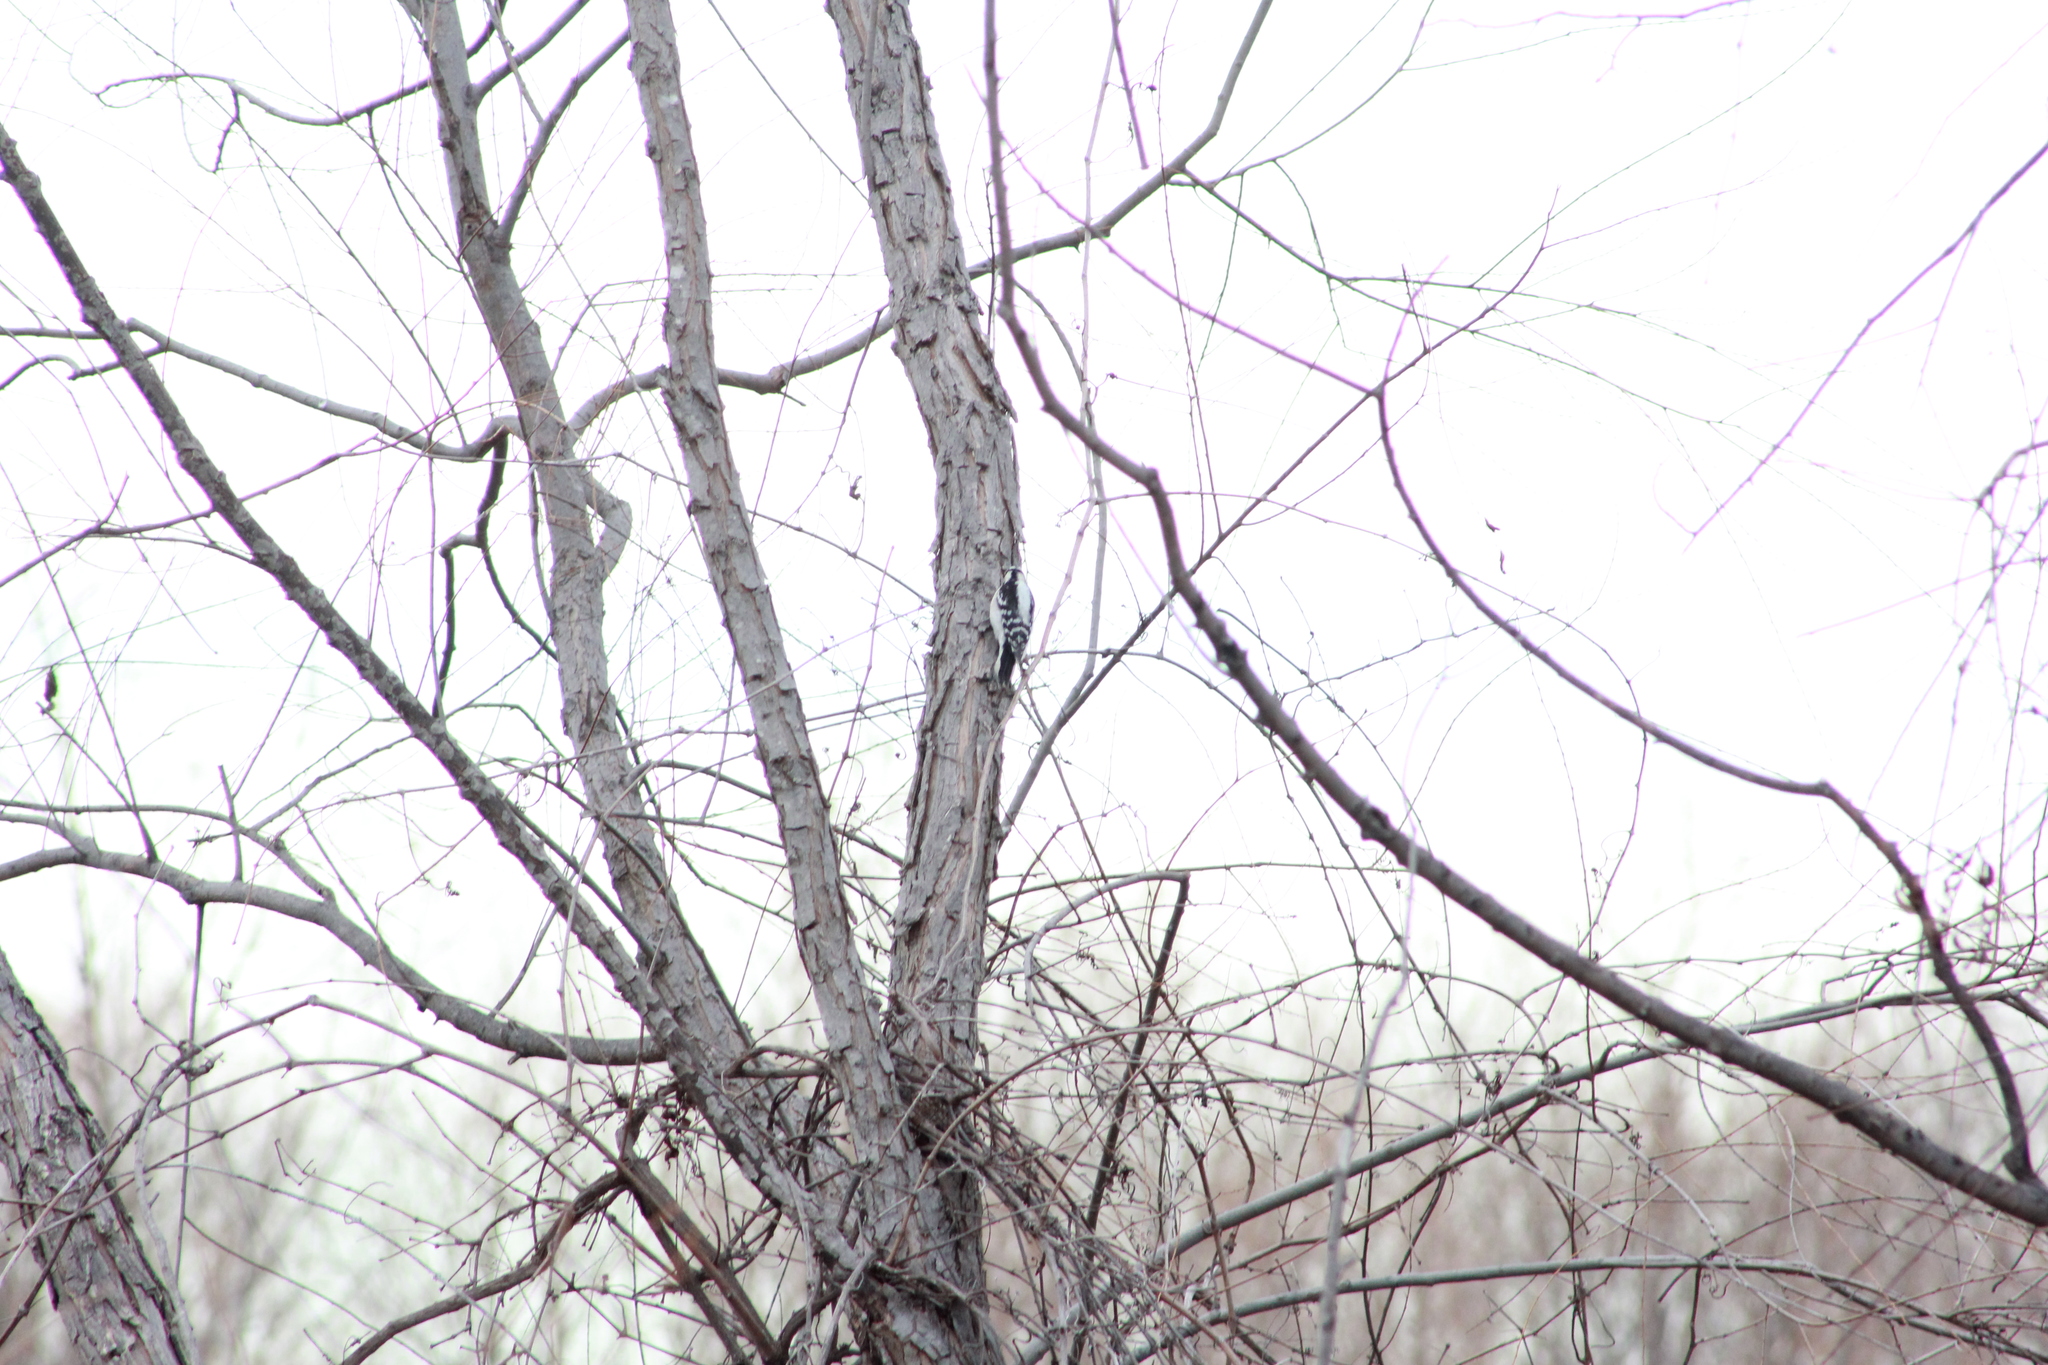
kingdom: Animalia
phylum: Chordata
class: Aves
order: Piciformes
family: Picidae
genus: Dryobates
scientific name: Dryobates pubescens
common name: Downy woodpecker
